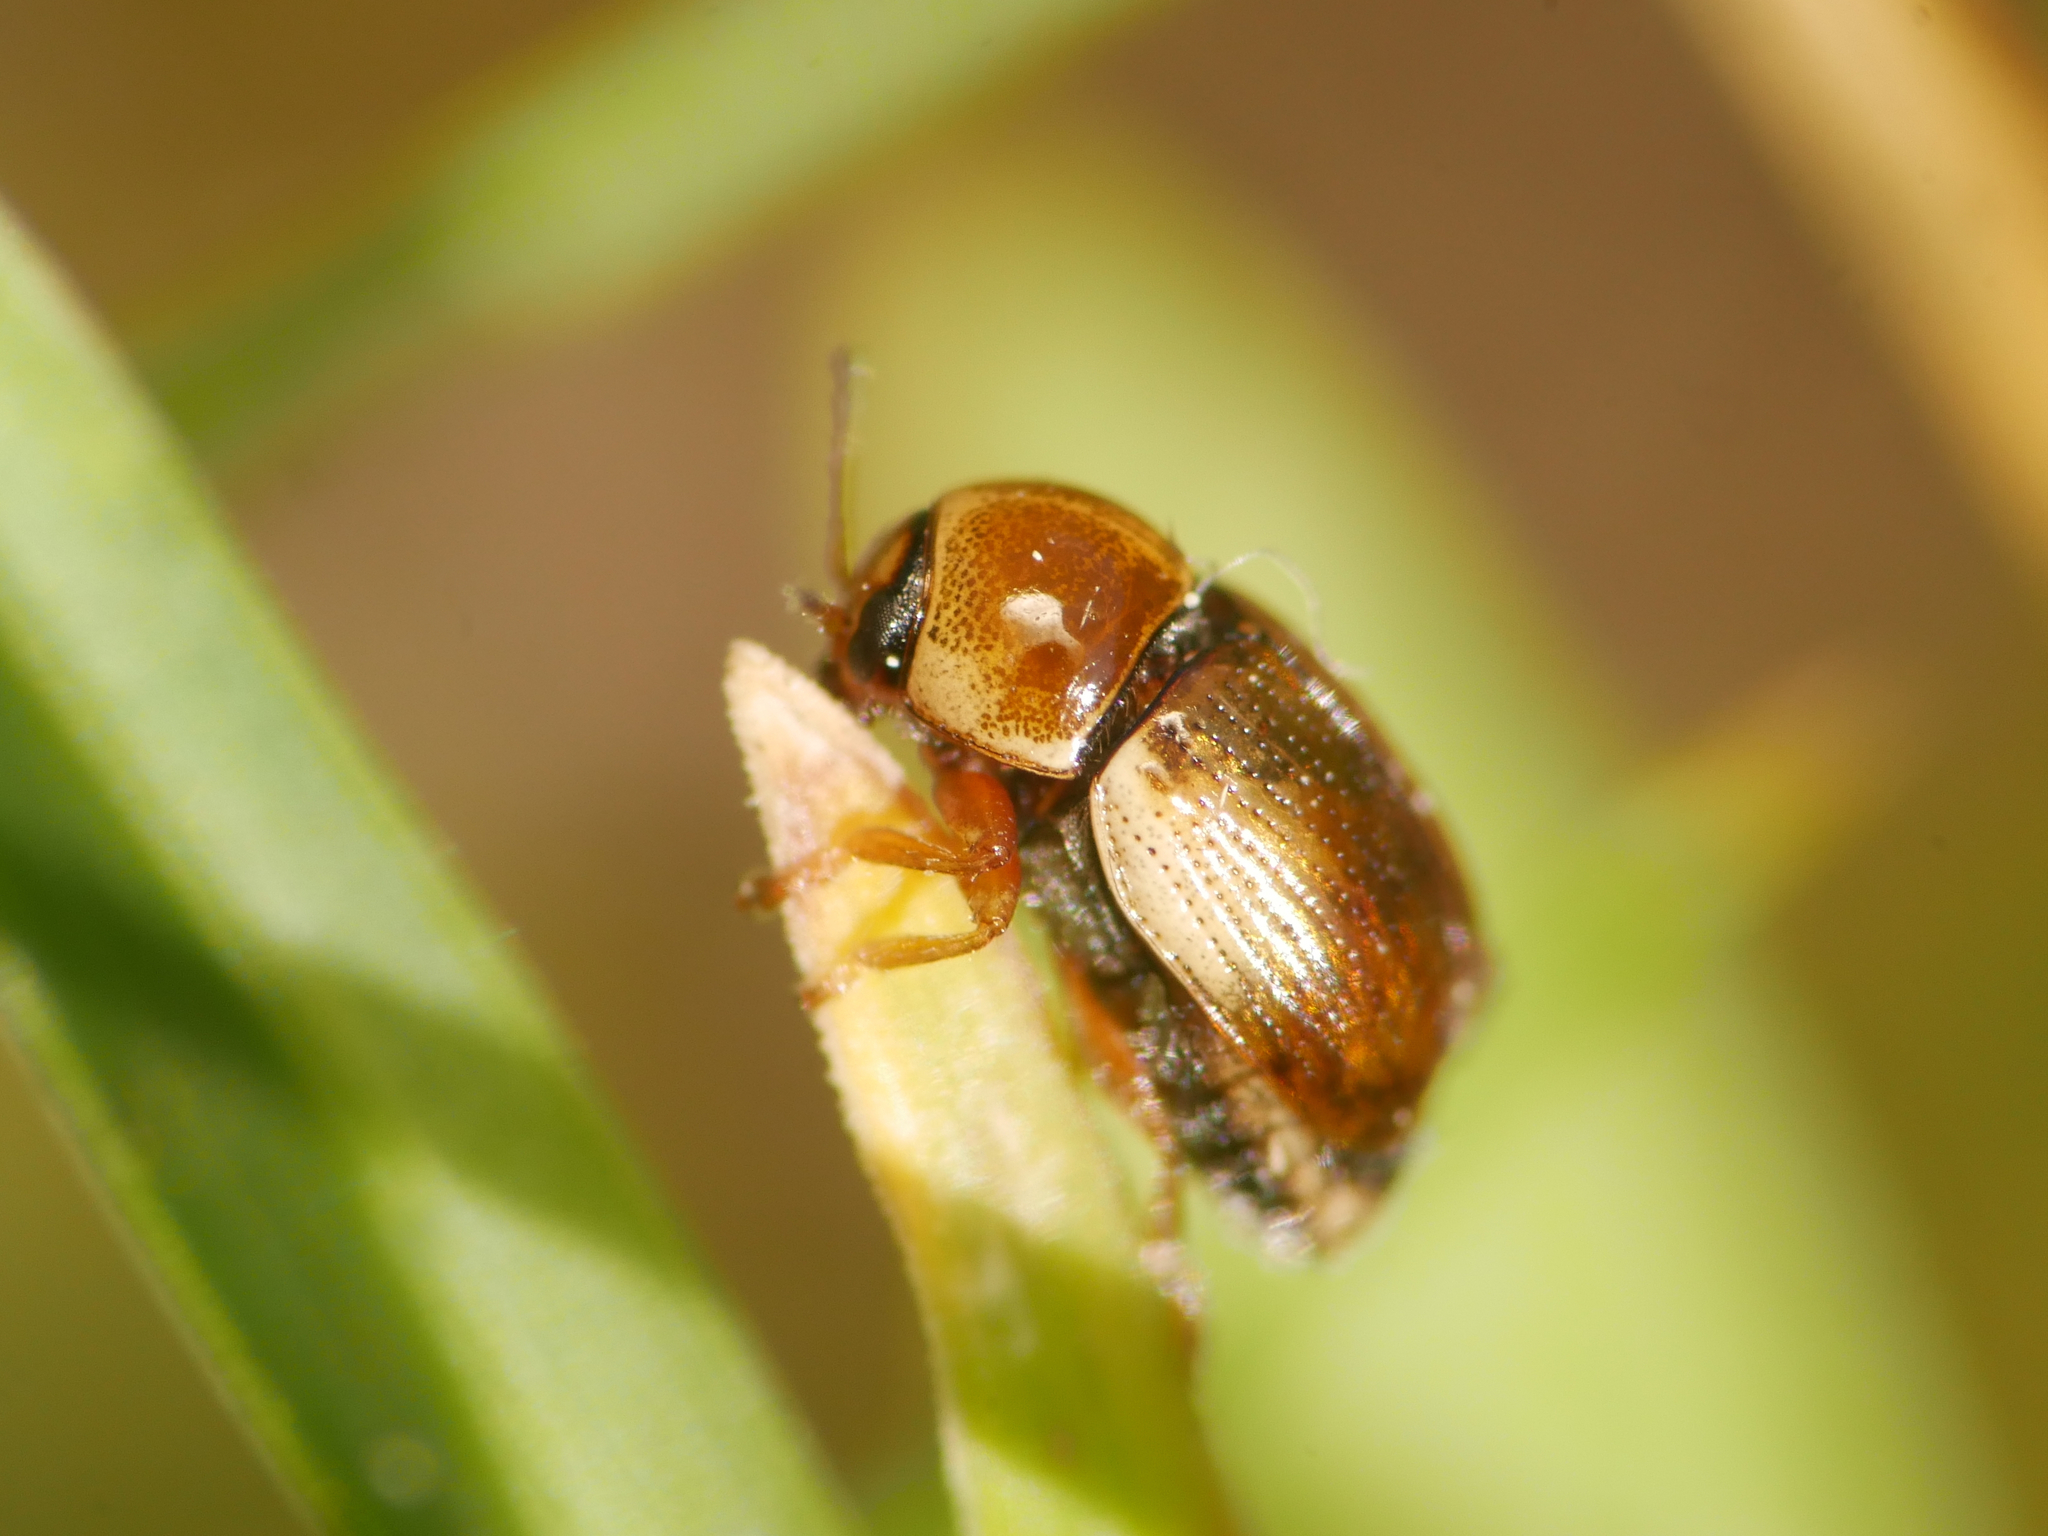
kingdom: Animalia
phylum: Arthropoda
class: Insecta
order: Coleoptera
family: Chrysomelidae
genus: Cryptocephalus
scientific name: Cryptocephalus fulvus
